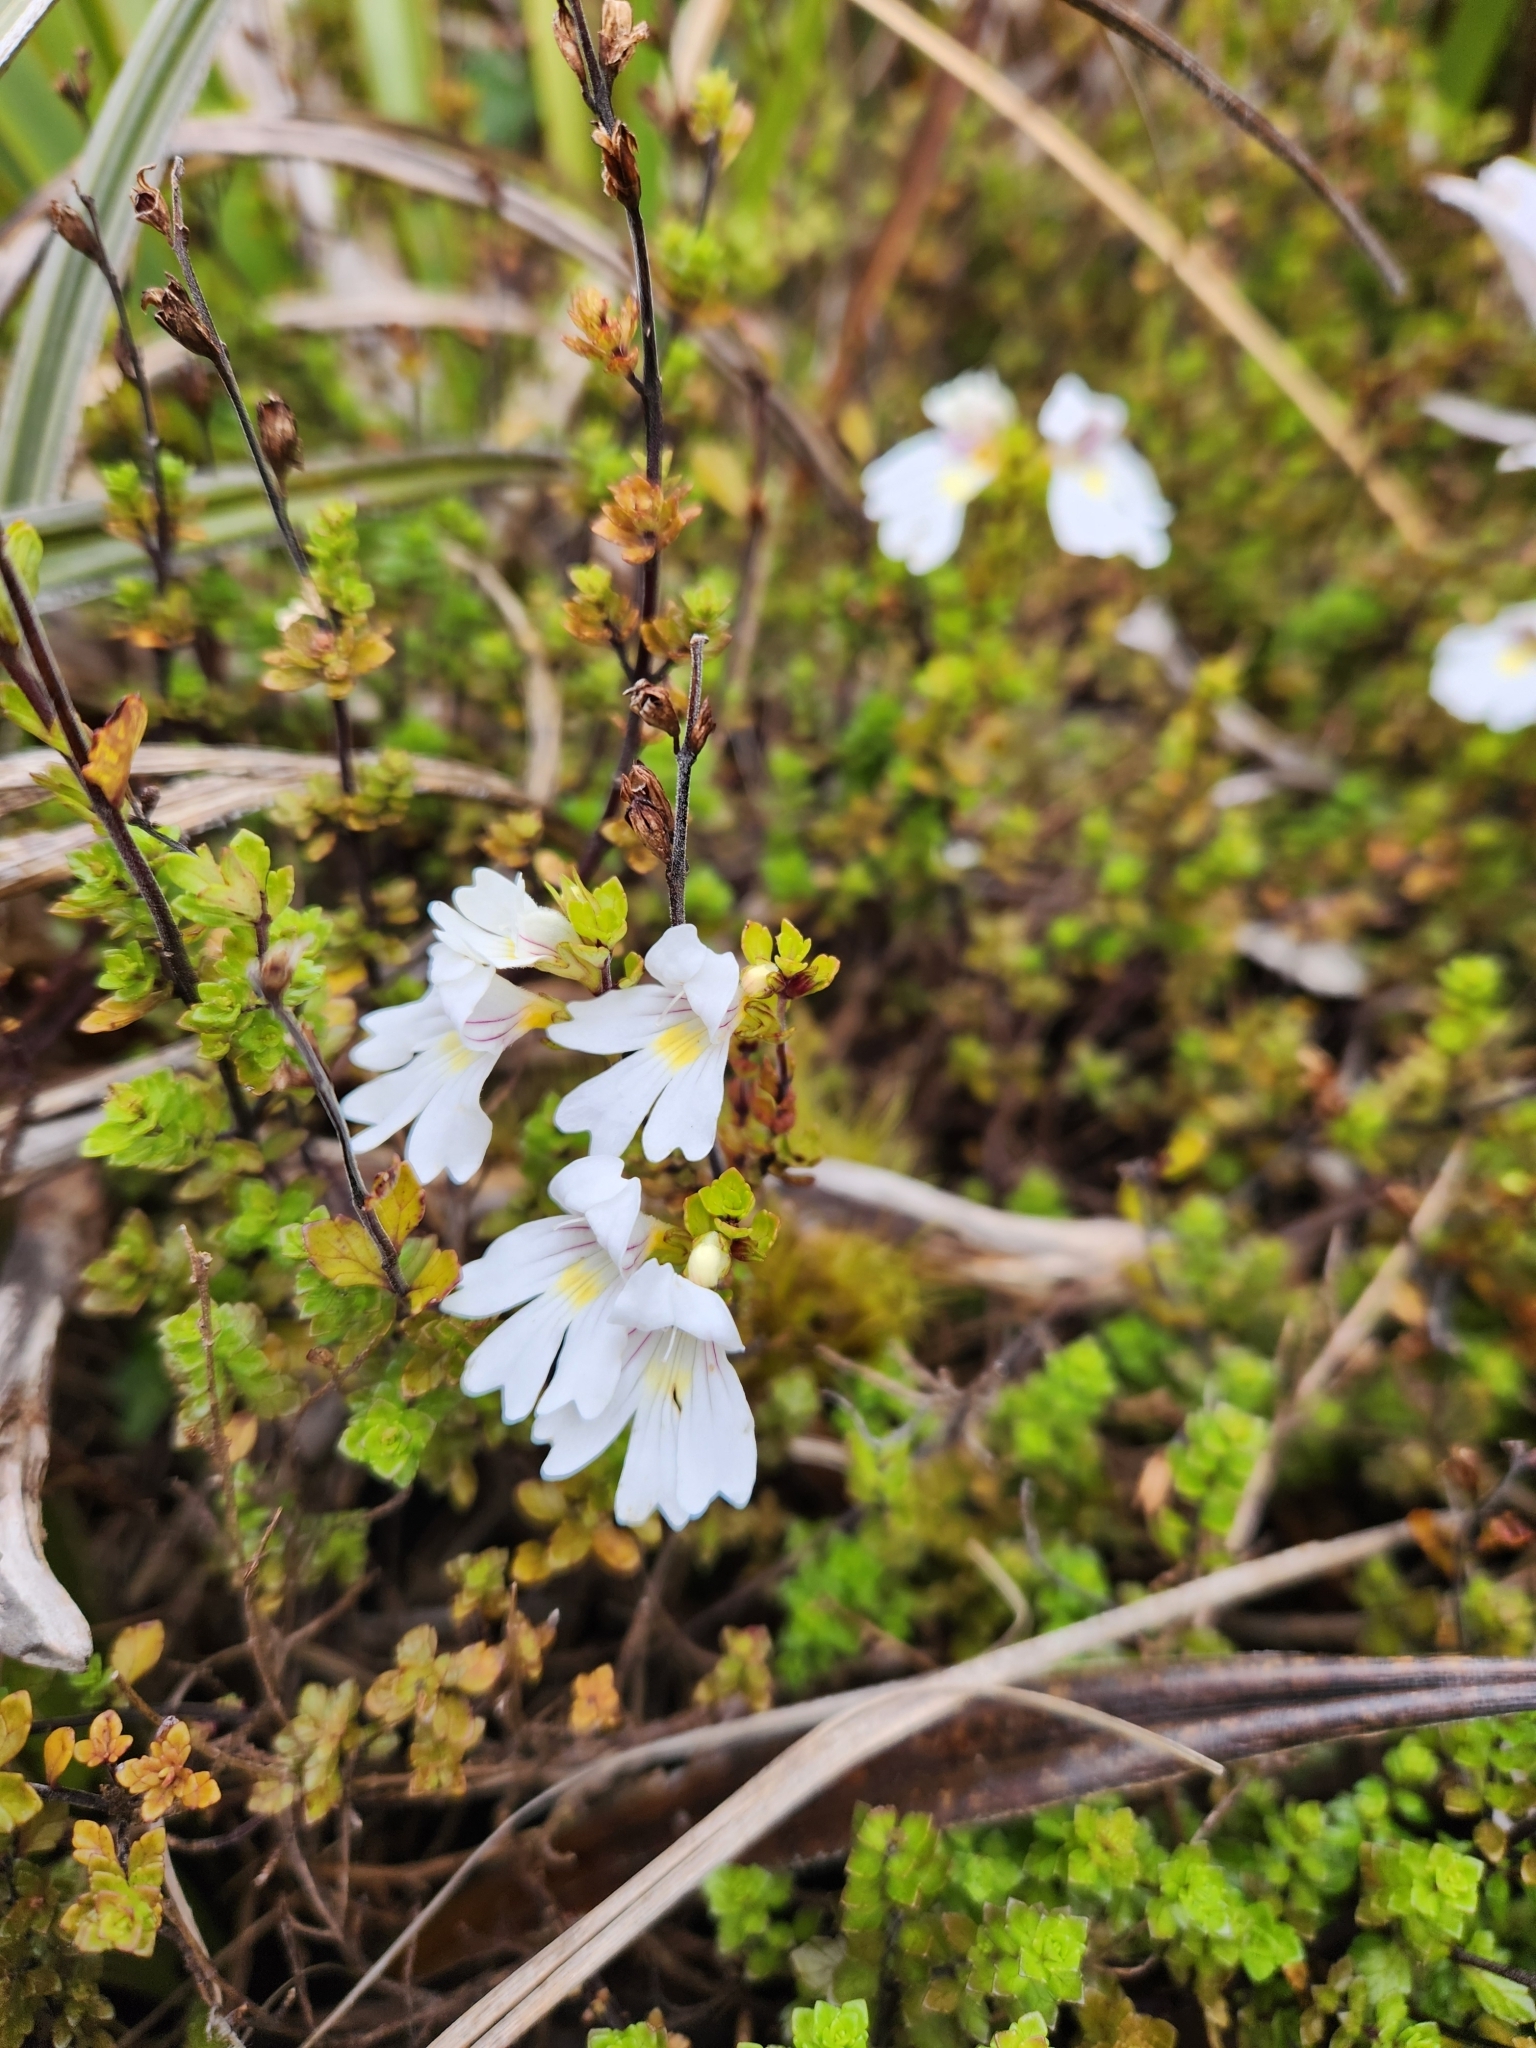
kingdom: Plantae
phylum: Tracheophyta
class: Magnoliopsida
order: Lamiales
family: Orobanchaceae
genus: Euphrasia
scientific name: Euphrasia cuneata
